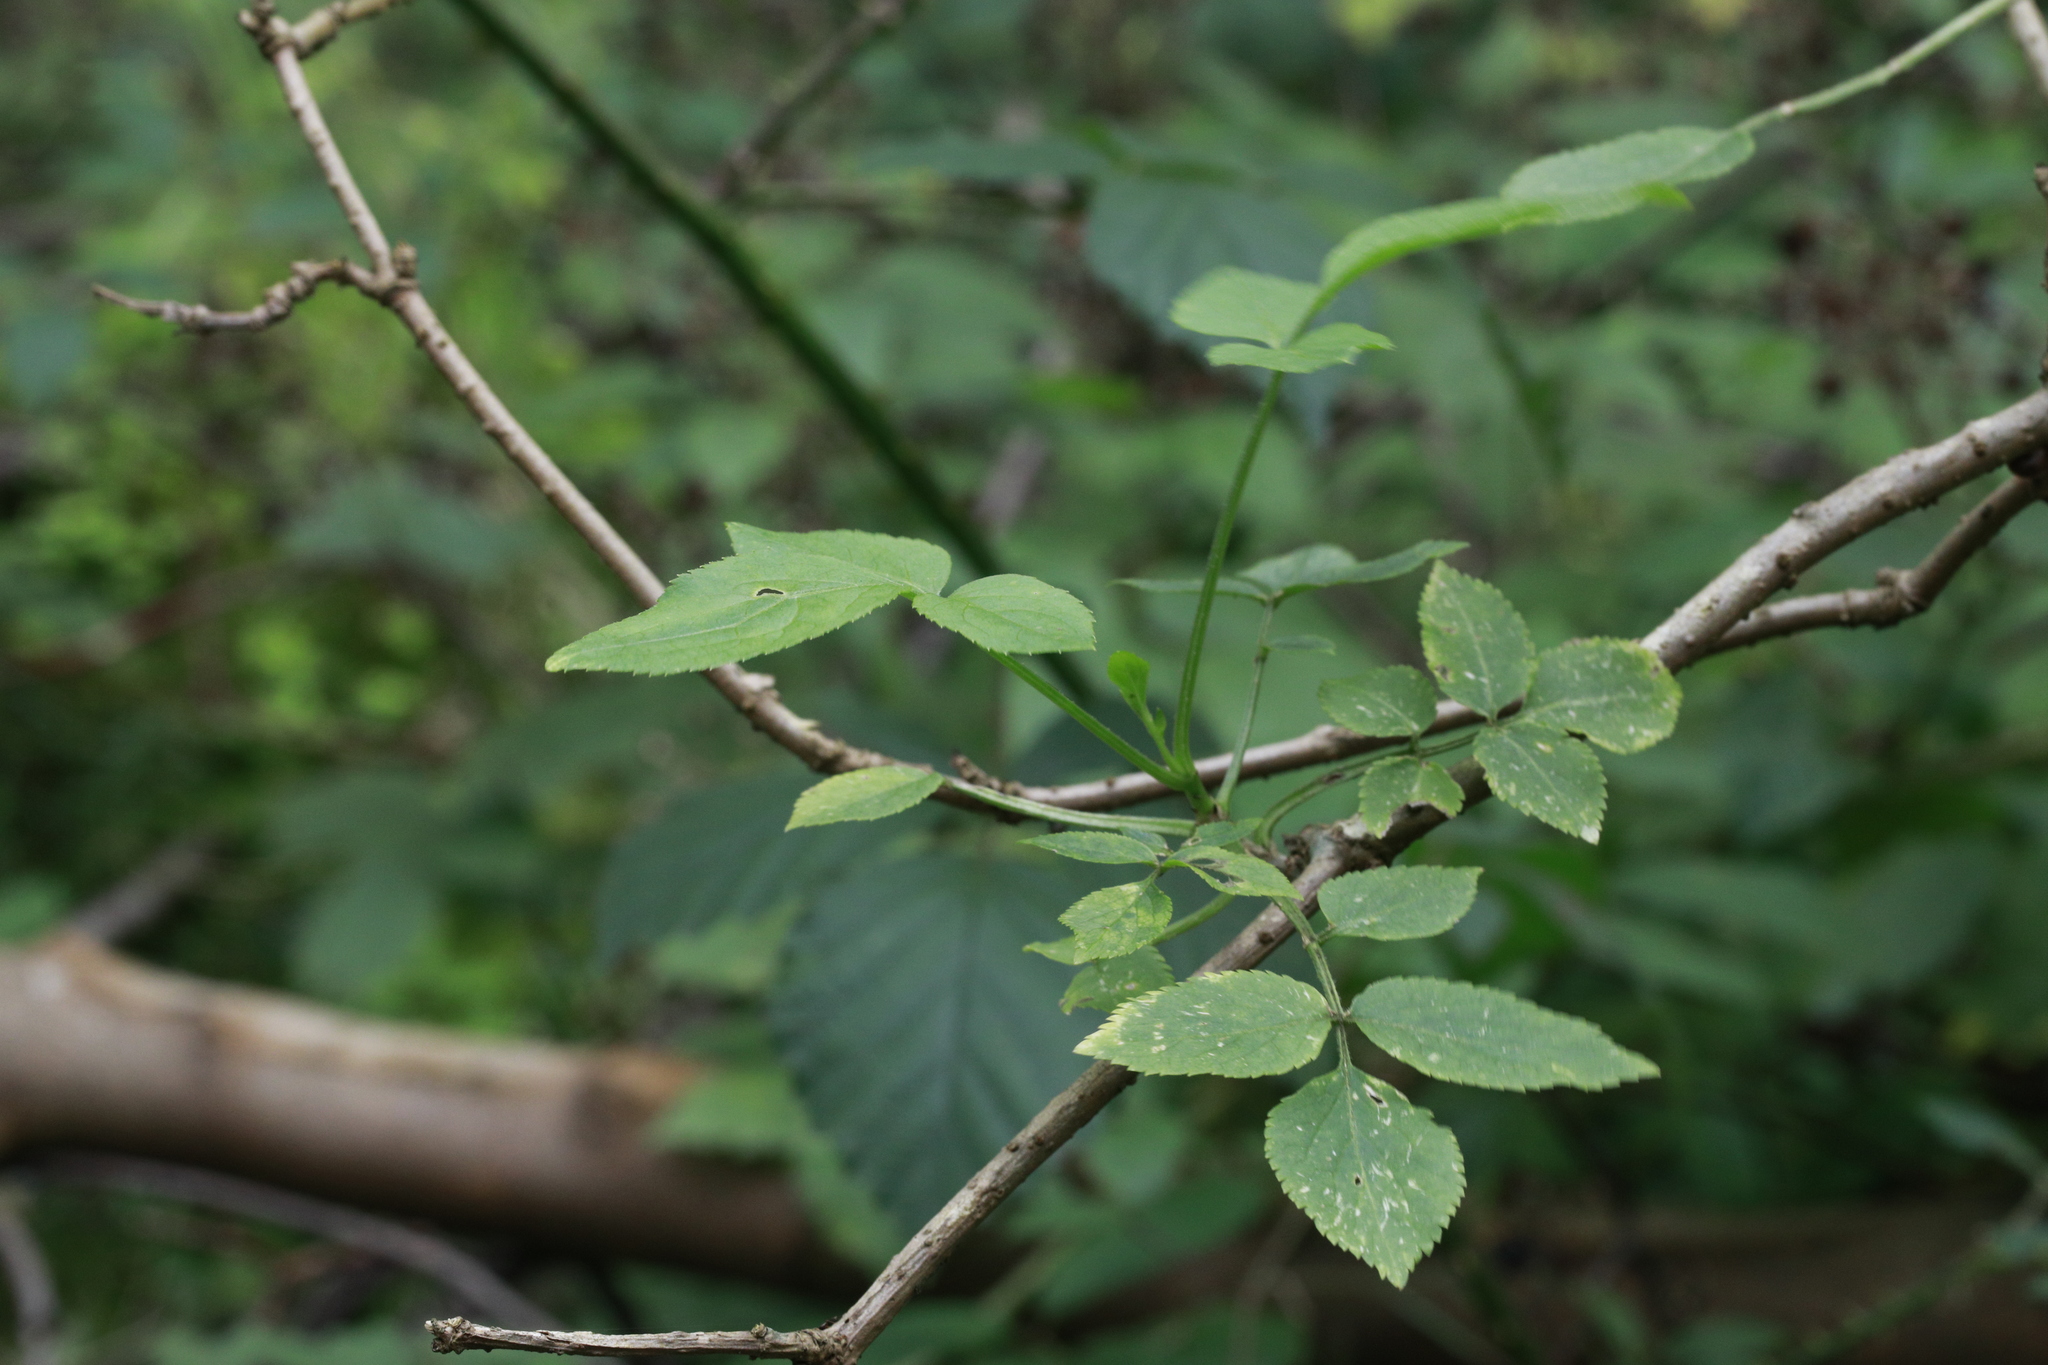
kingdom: Plantae
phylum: Tracheophyta
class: Magnoliopsida
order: Dipsacales
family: Viburnaceae
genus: Sambucus
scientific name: Sambucus nigra
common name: Elder
